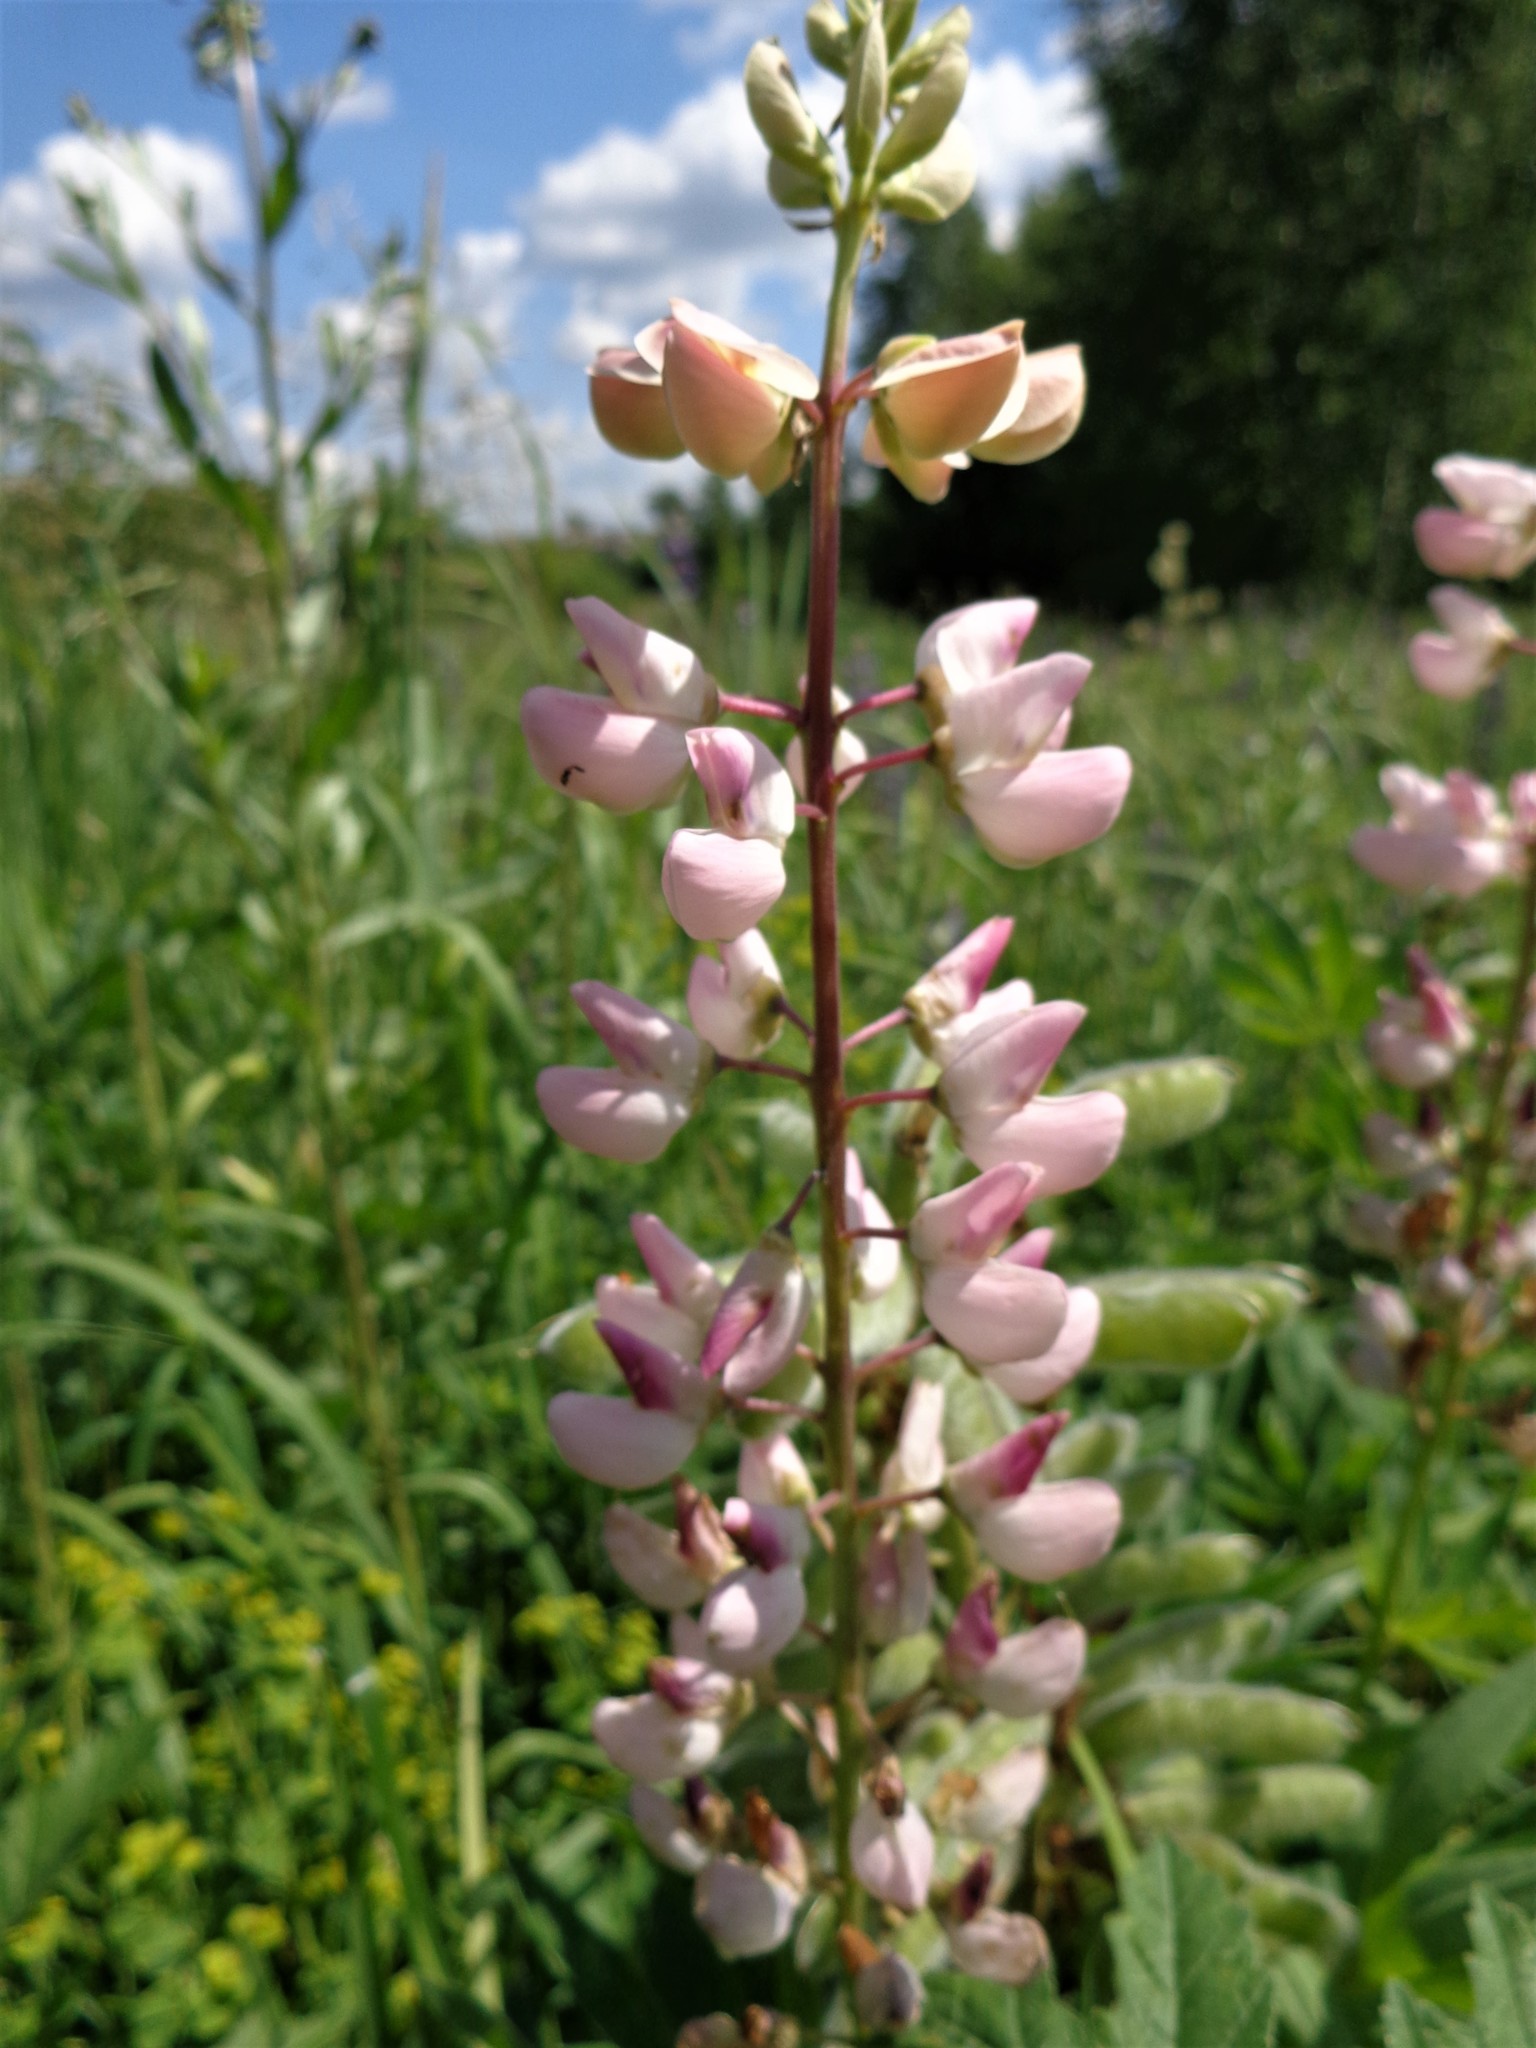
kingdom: Plantae
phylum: Tracheophyta
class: Magnoliopsida
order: Fabales
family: Fabaceae
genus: Lupinus
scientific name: Lupinus polyphyllus
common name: Garden lupin
